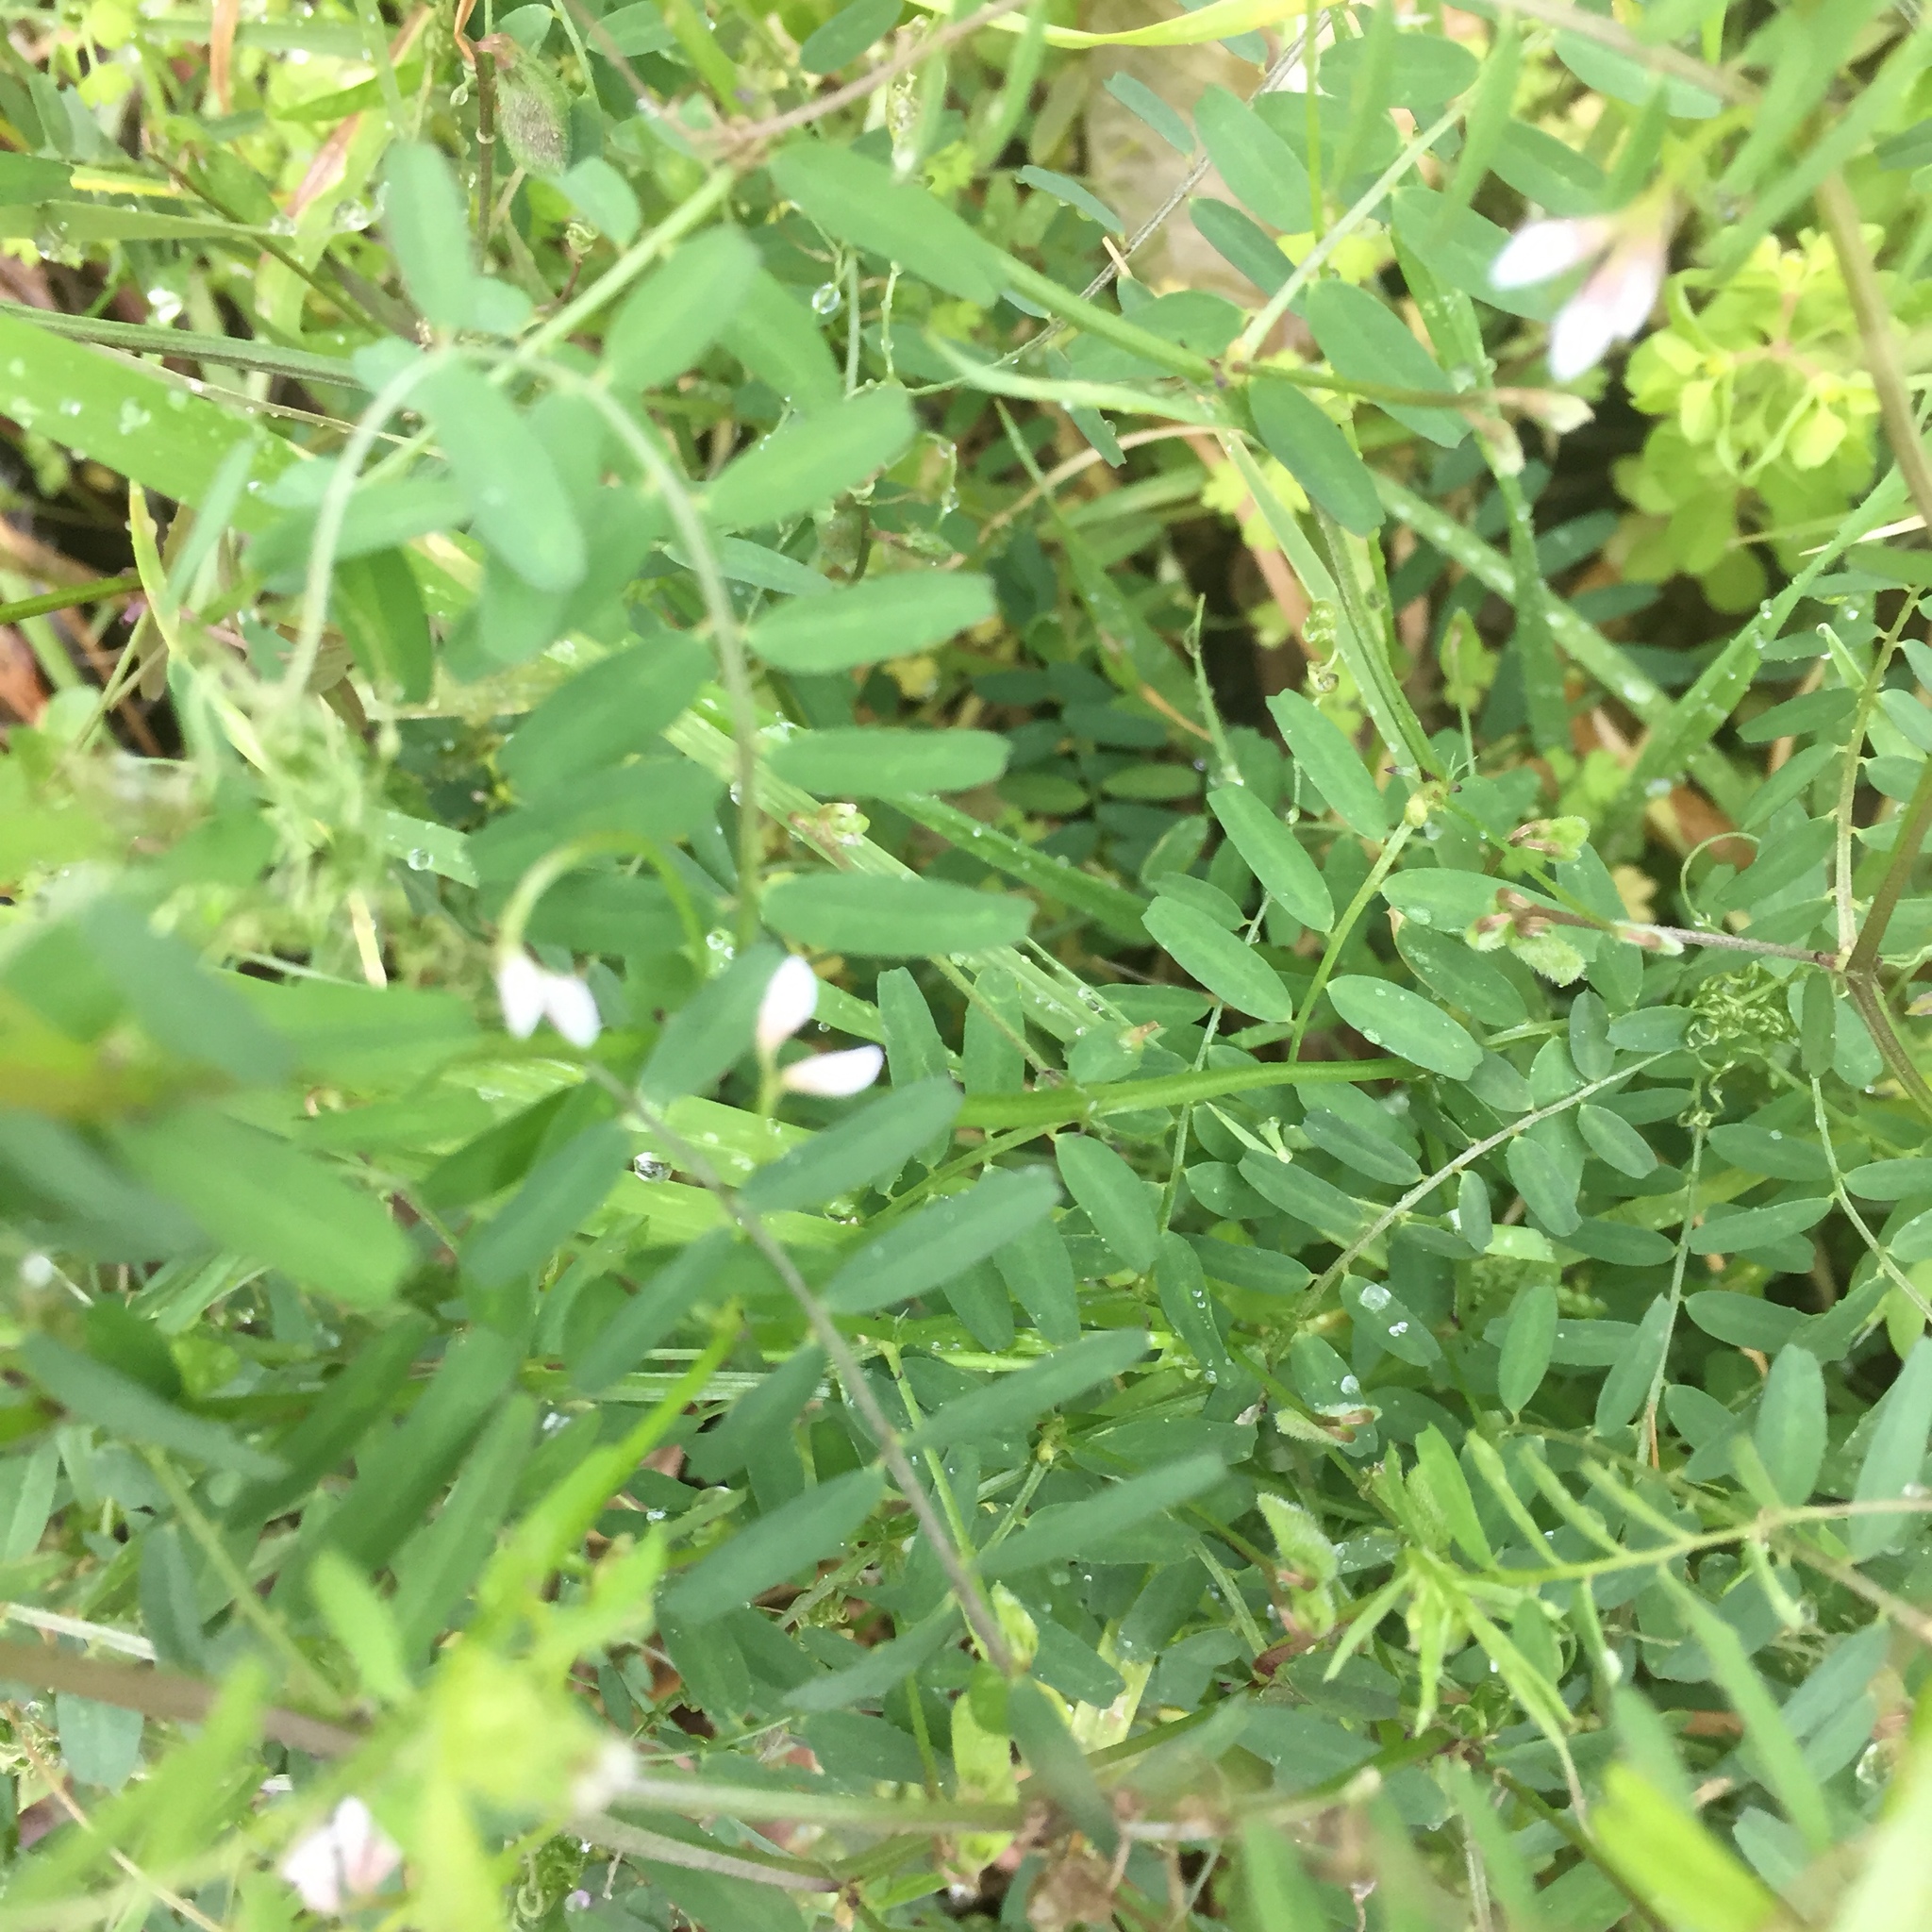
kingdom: Plantae
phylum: Tracheophyta
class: Magnoliopsida
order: Fabales
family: Fabaceae
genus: Vicia
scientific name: Vicia hirsuta
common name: Tiny vetch
